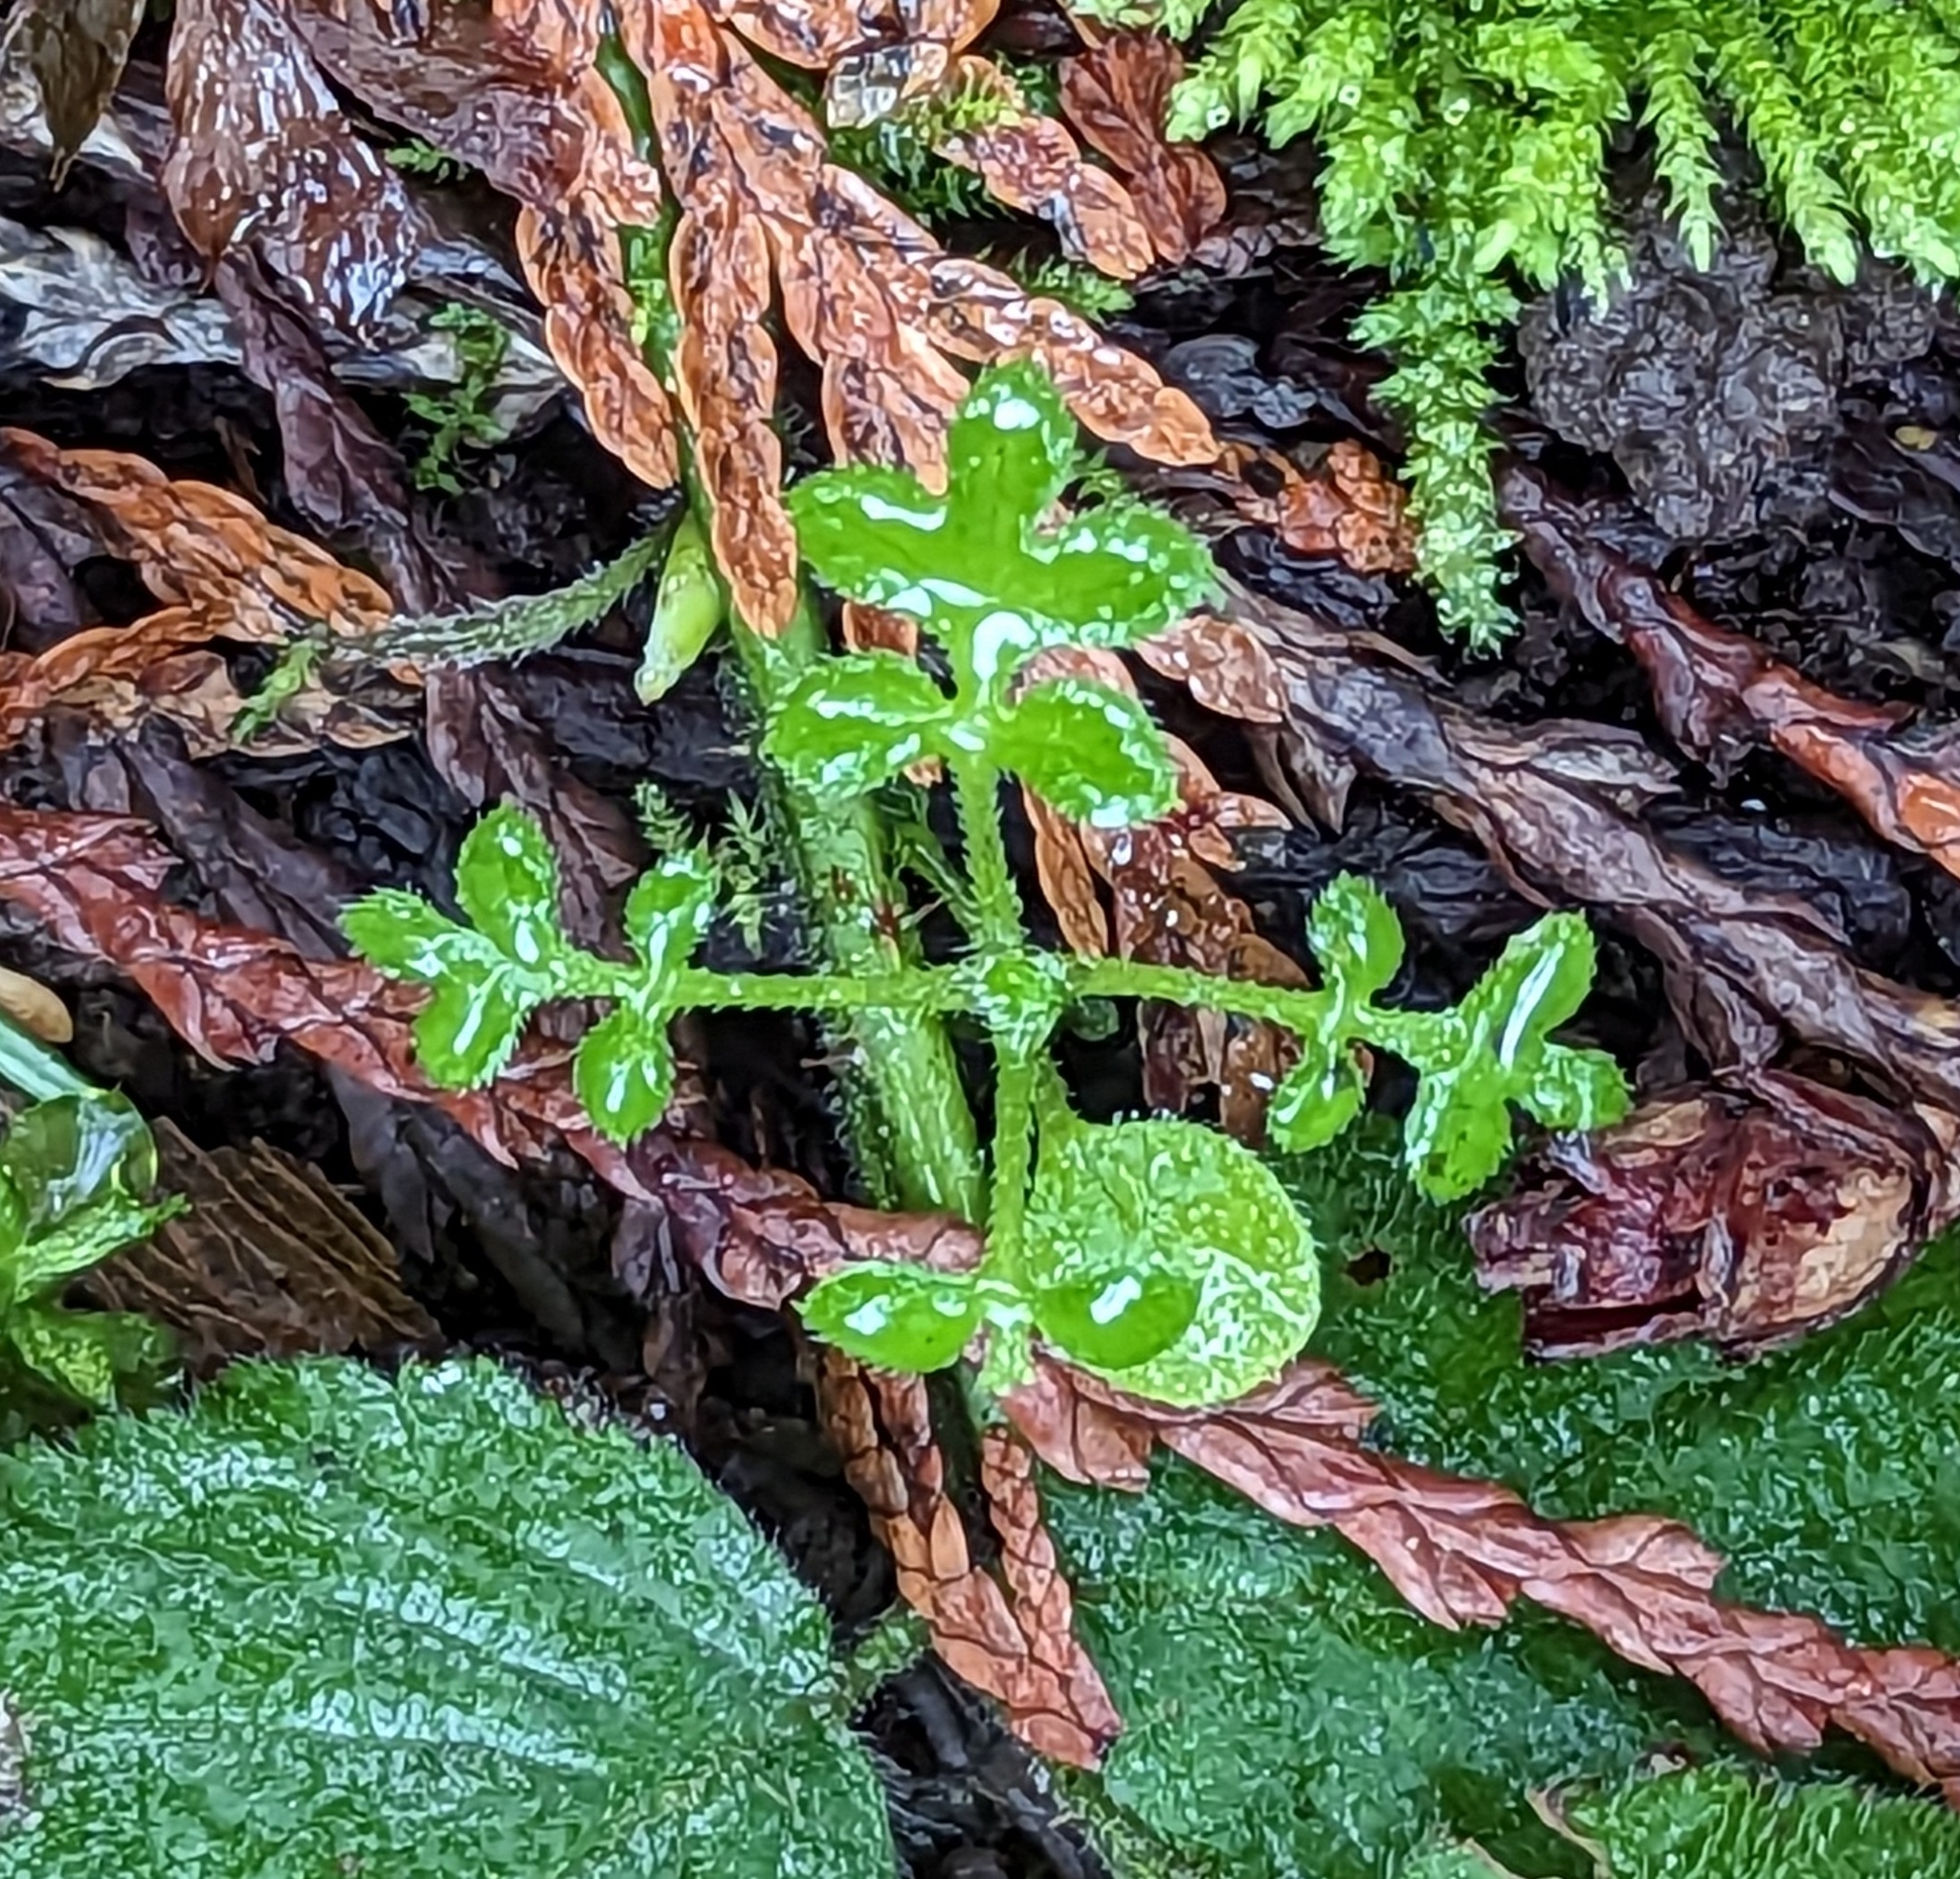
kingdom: Plantae
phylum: Tracheophyta
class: Magnoliopsida
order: Boraginales
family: Hydrophyllaceae
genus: Nemophila
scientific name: Nemophila parviflora
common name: Small-flowered baby-blue-eyes
